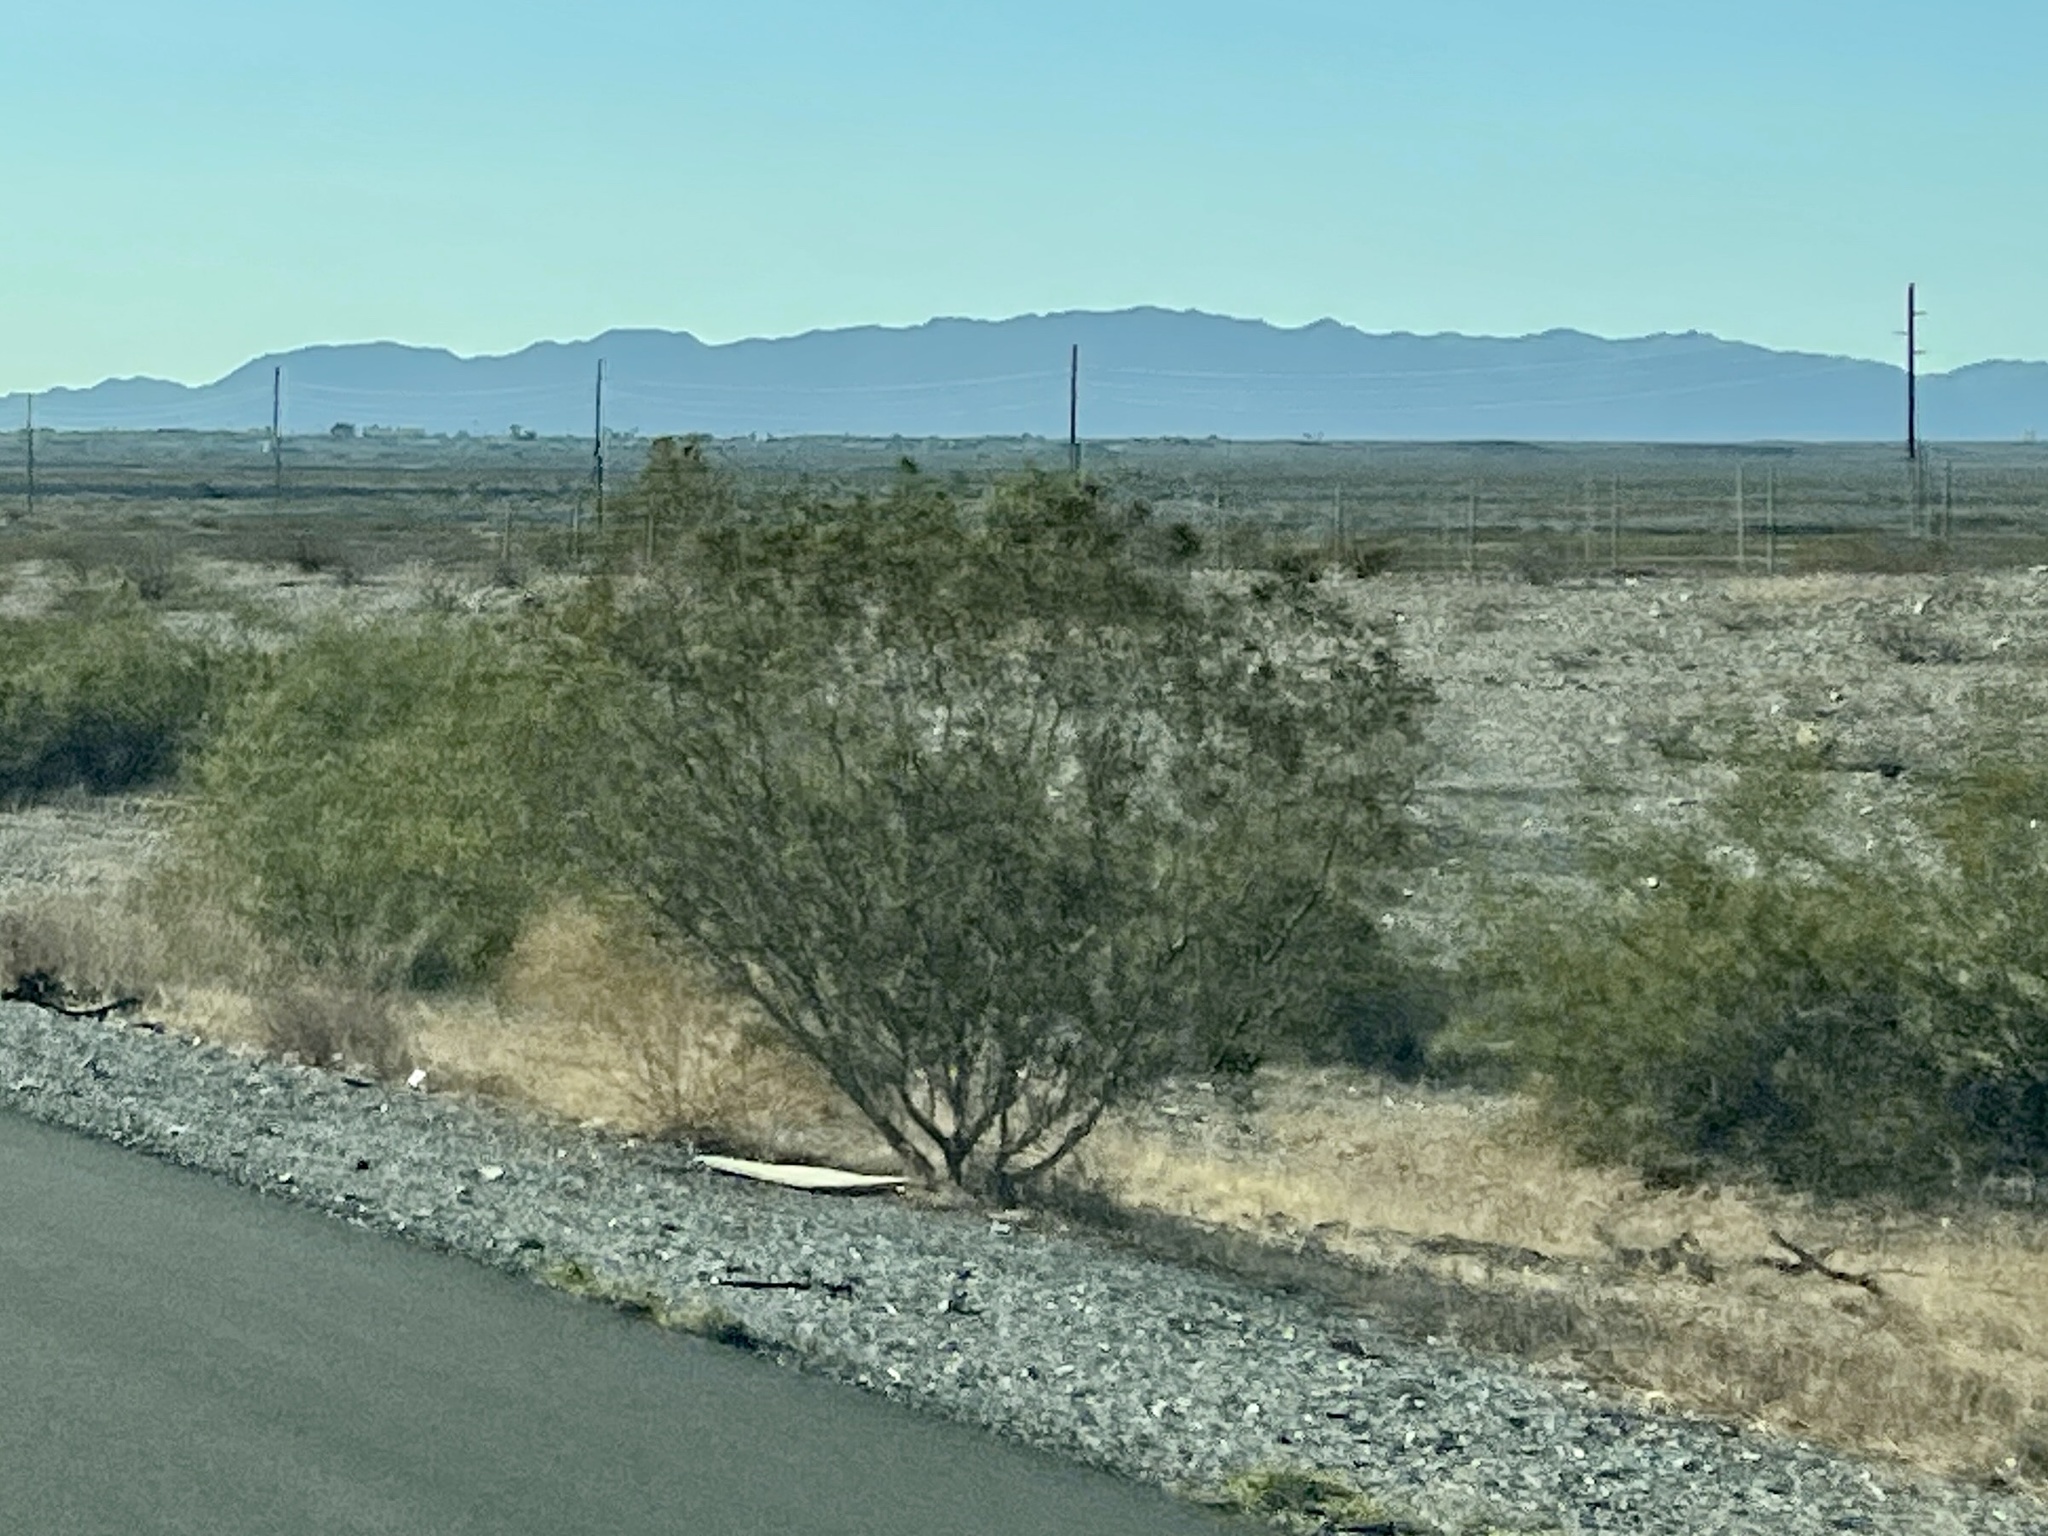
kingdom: Plantae
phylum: Tracheophyta
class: Magnoliopsida
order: Zygophyllales
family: Zygophyllaceae
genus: Larrea
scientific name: Larrea tridentata
